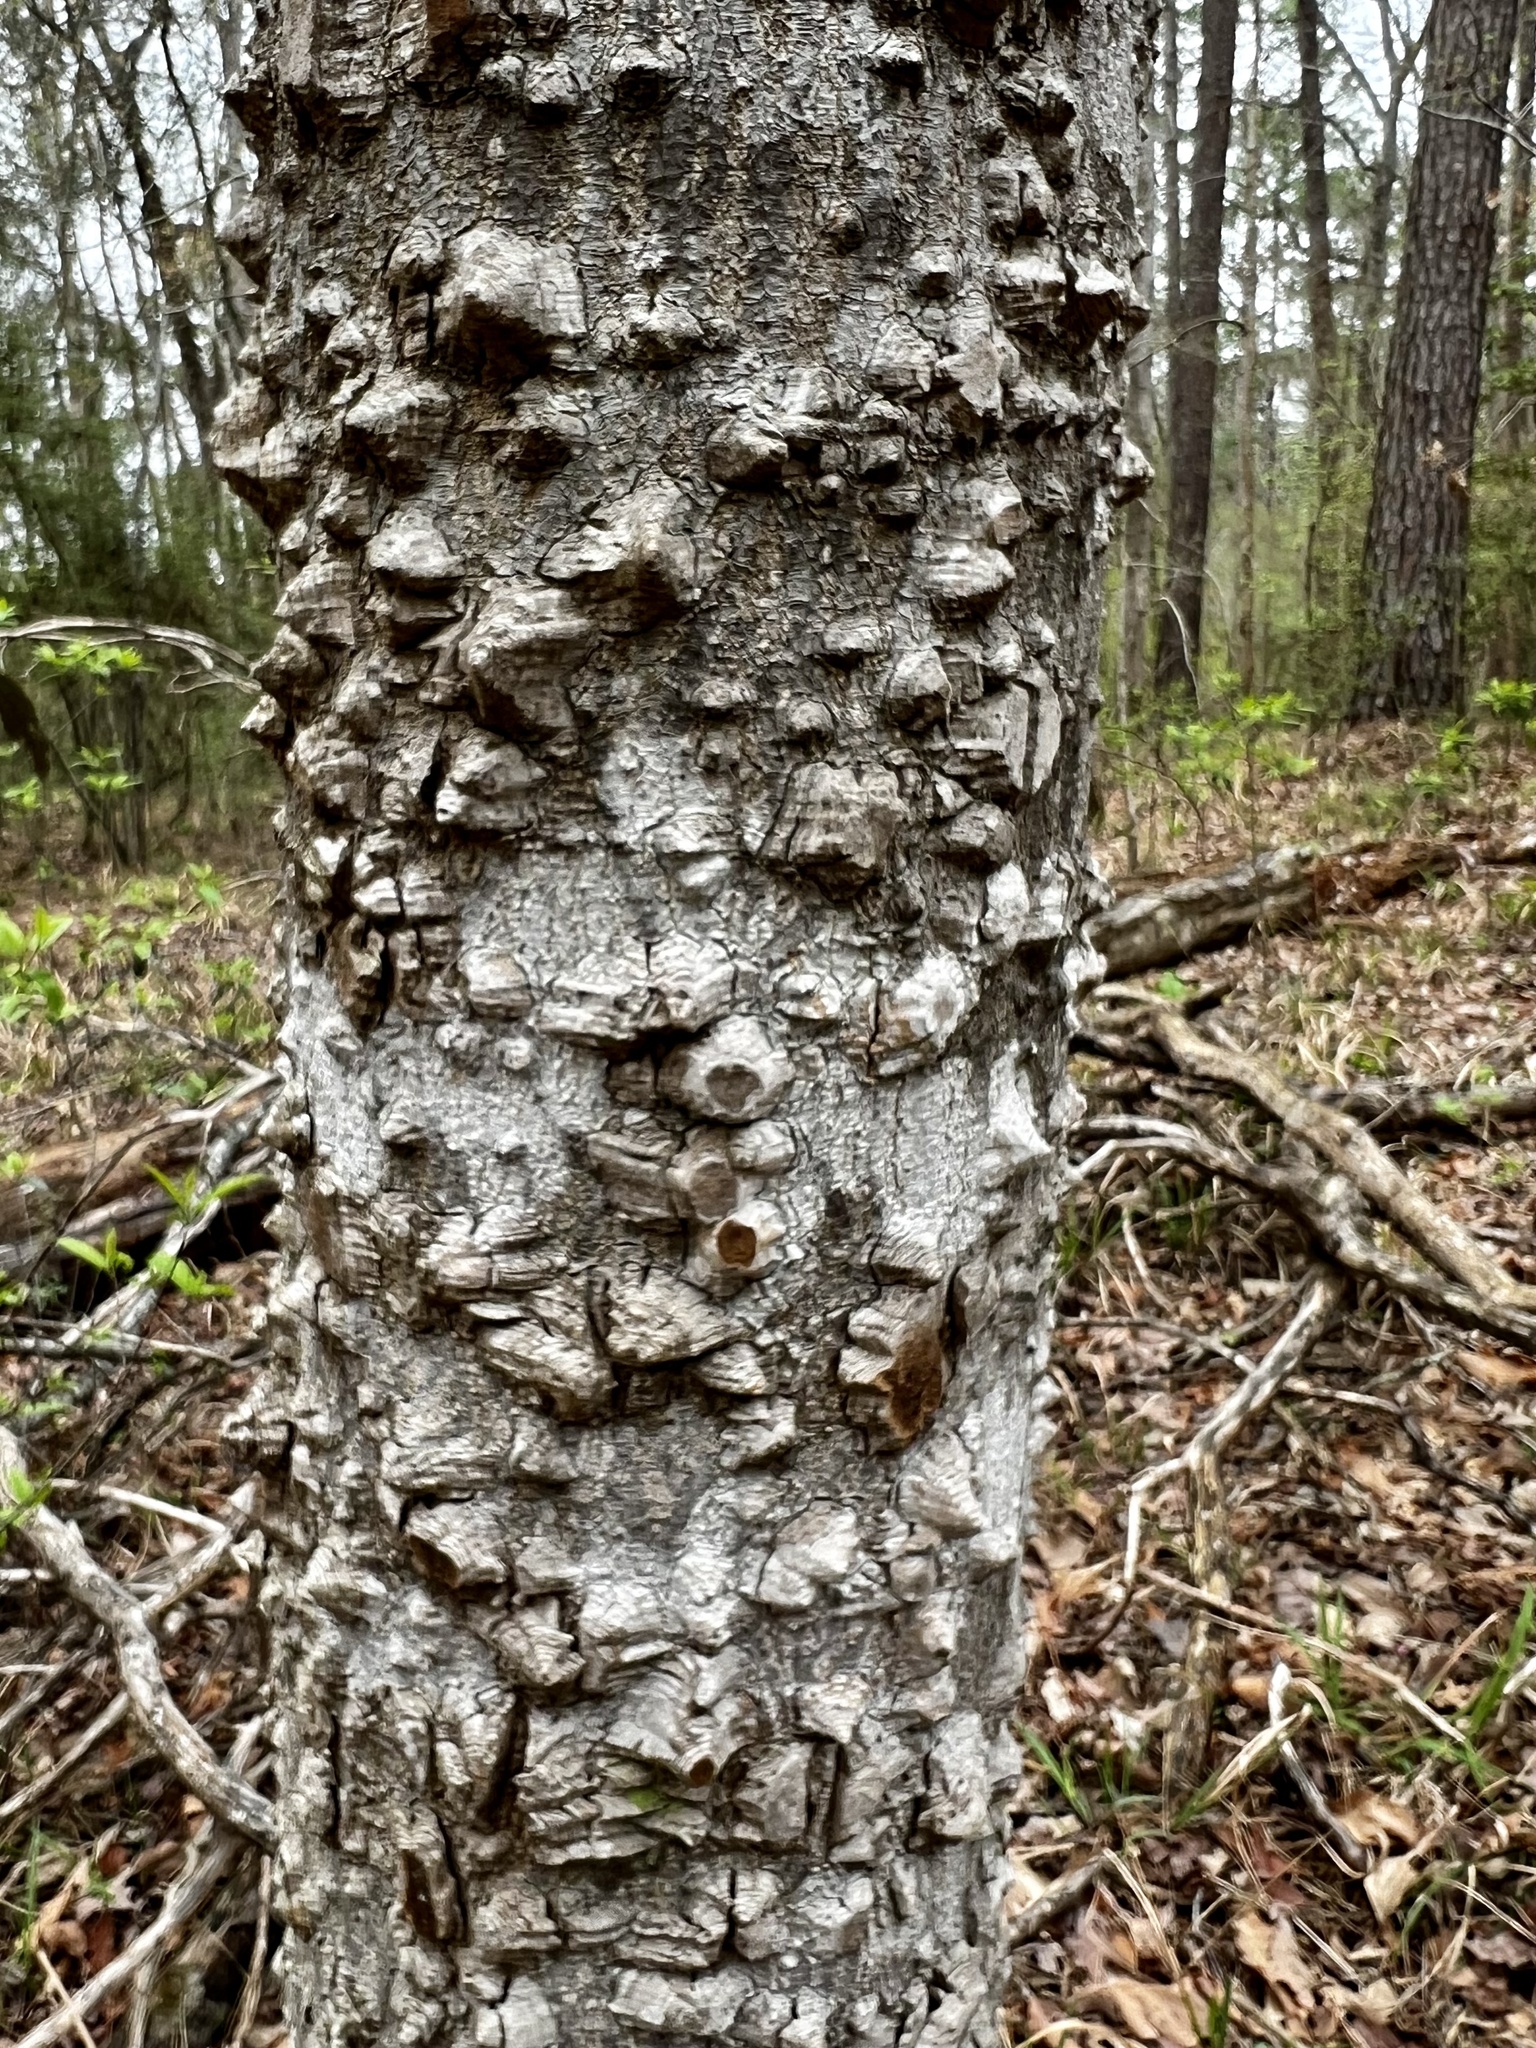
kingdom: Plantae
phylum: Tracheophyta
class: Magnoliopsida
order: Sapindales
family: Rutaceae
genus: Zanthoxylum
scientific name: Zanthoxylum clava-herculis
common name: Hercules'-club
